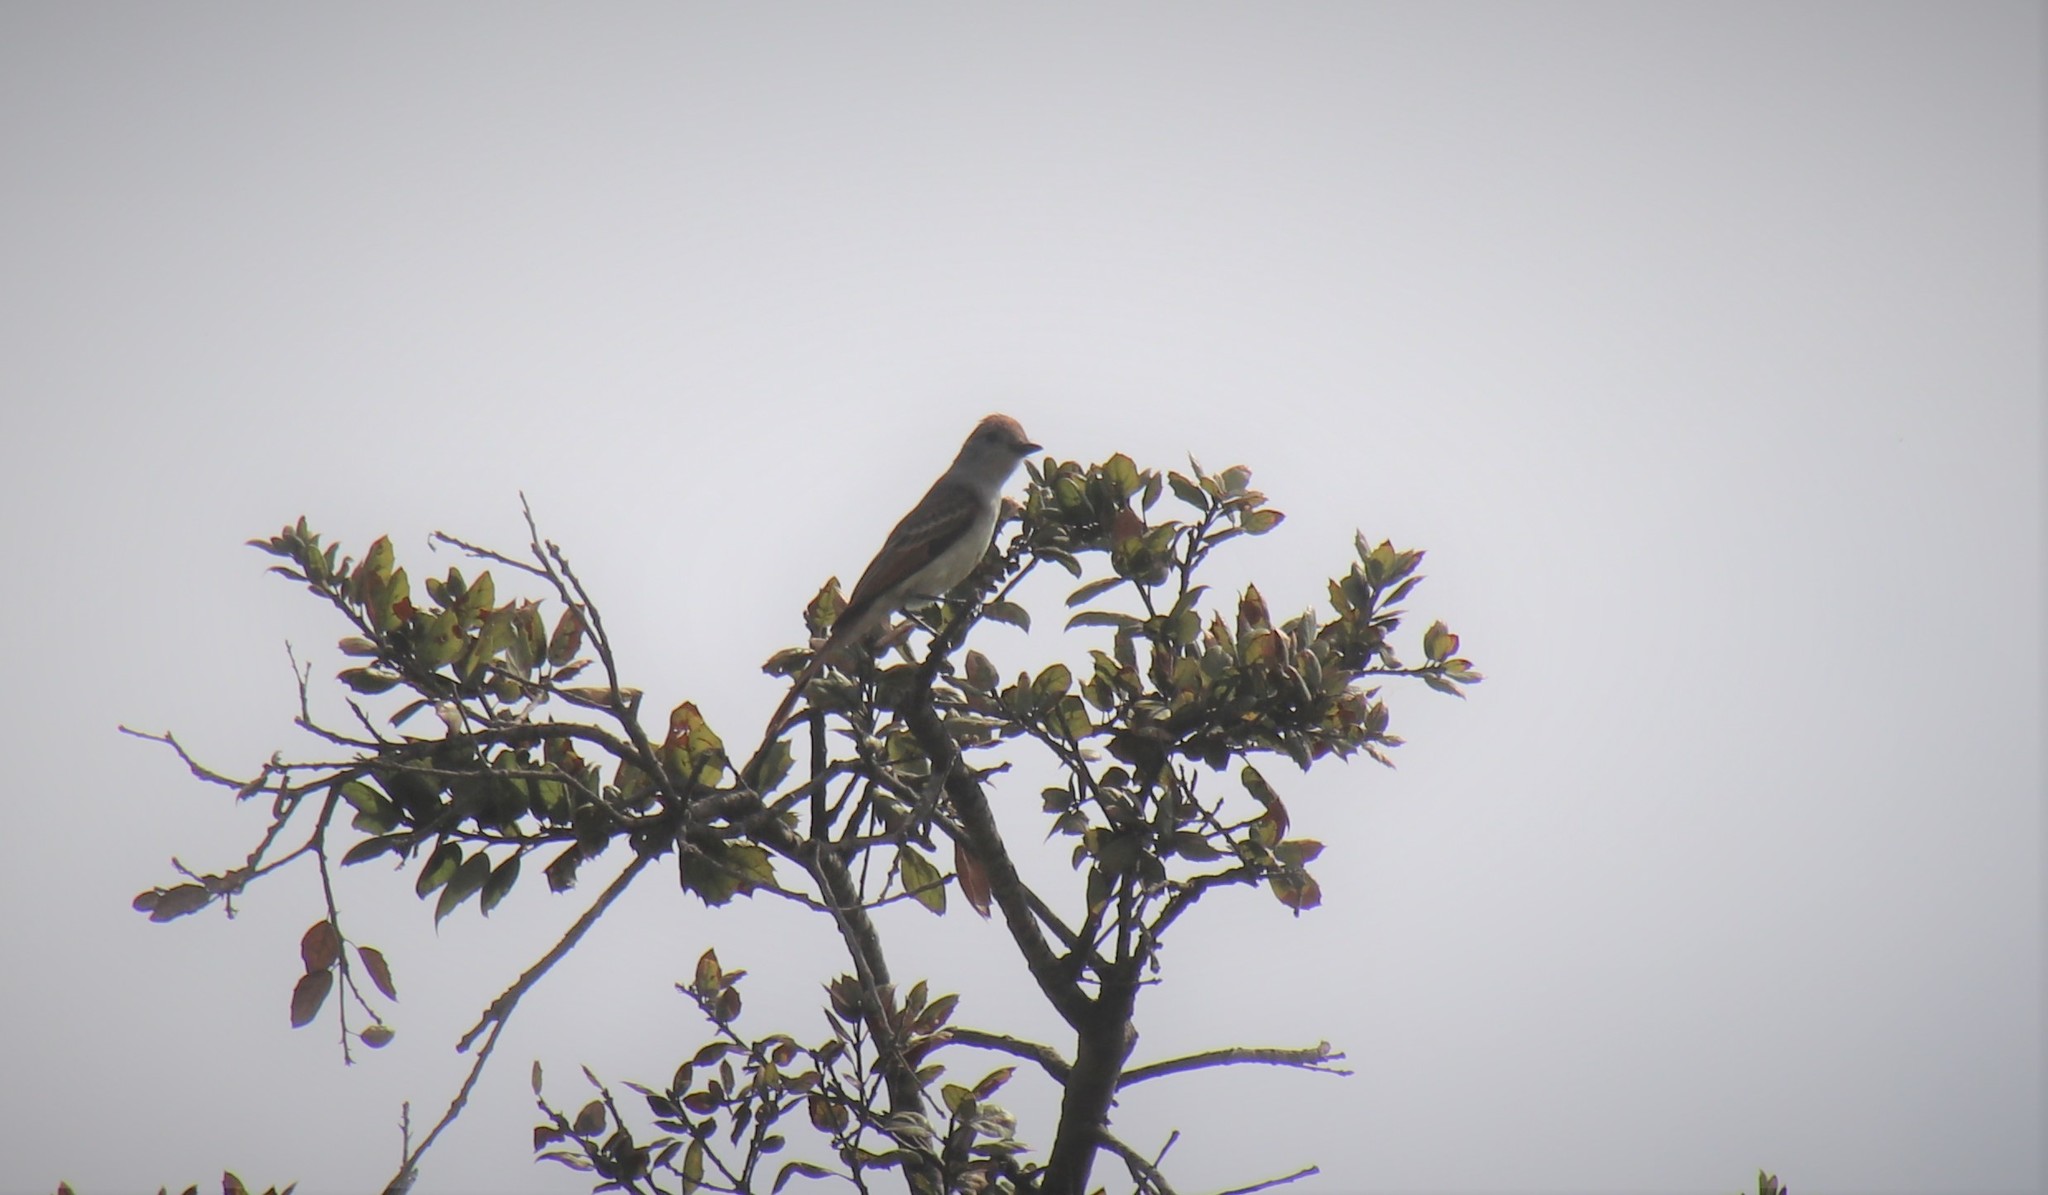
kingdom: Animalia
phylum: Chordata
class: Aves
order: Passeriformes
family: Tyrannidae
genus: Myiarchus
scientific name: Myiarchus cinerascens
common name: Ash-throated flycatcher
